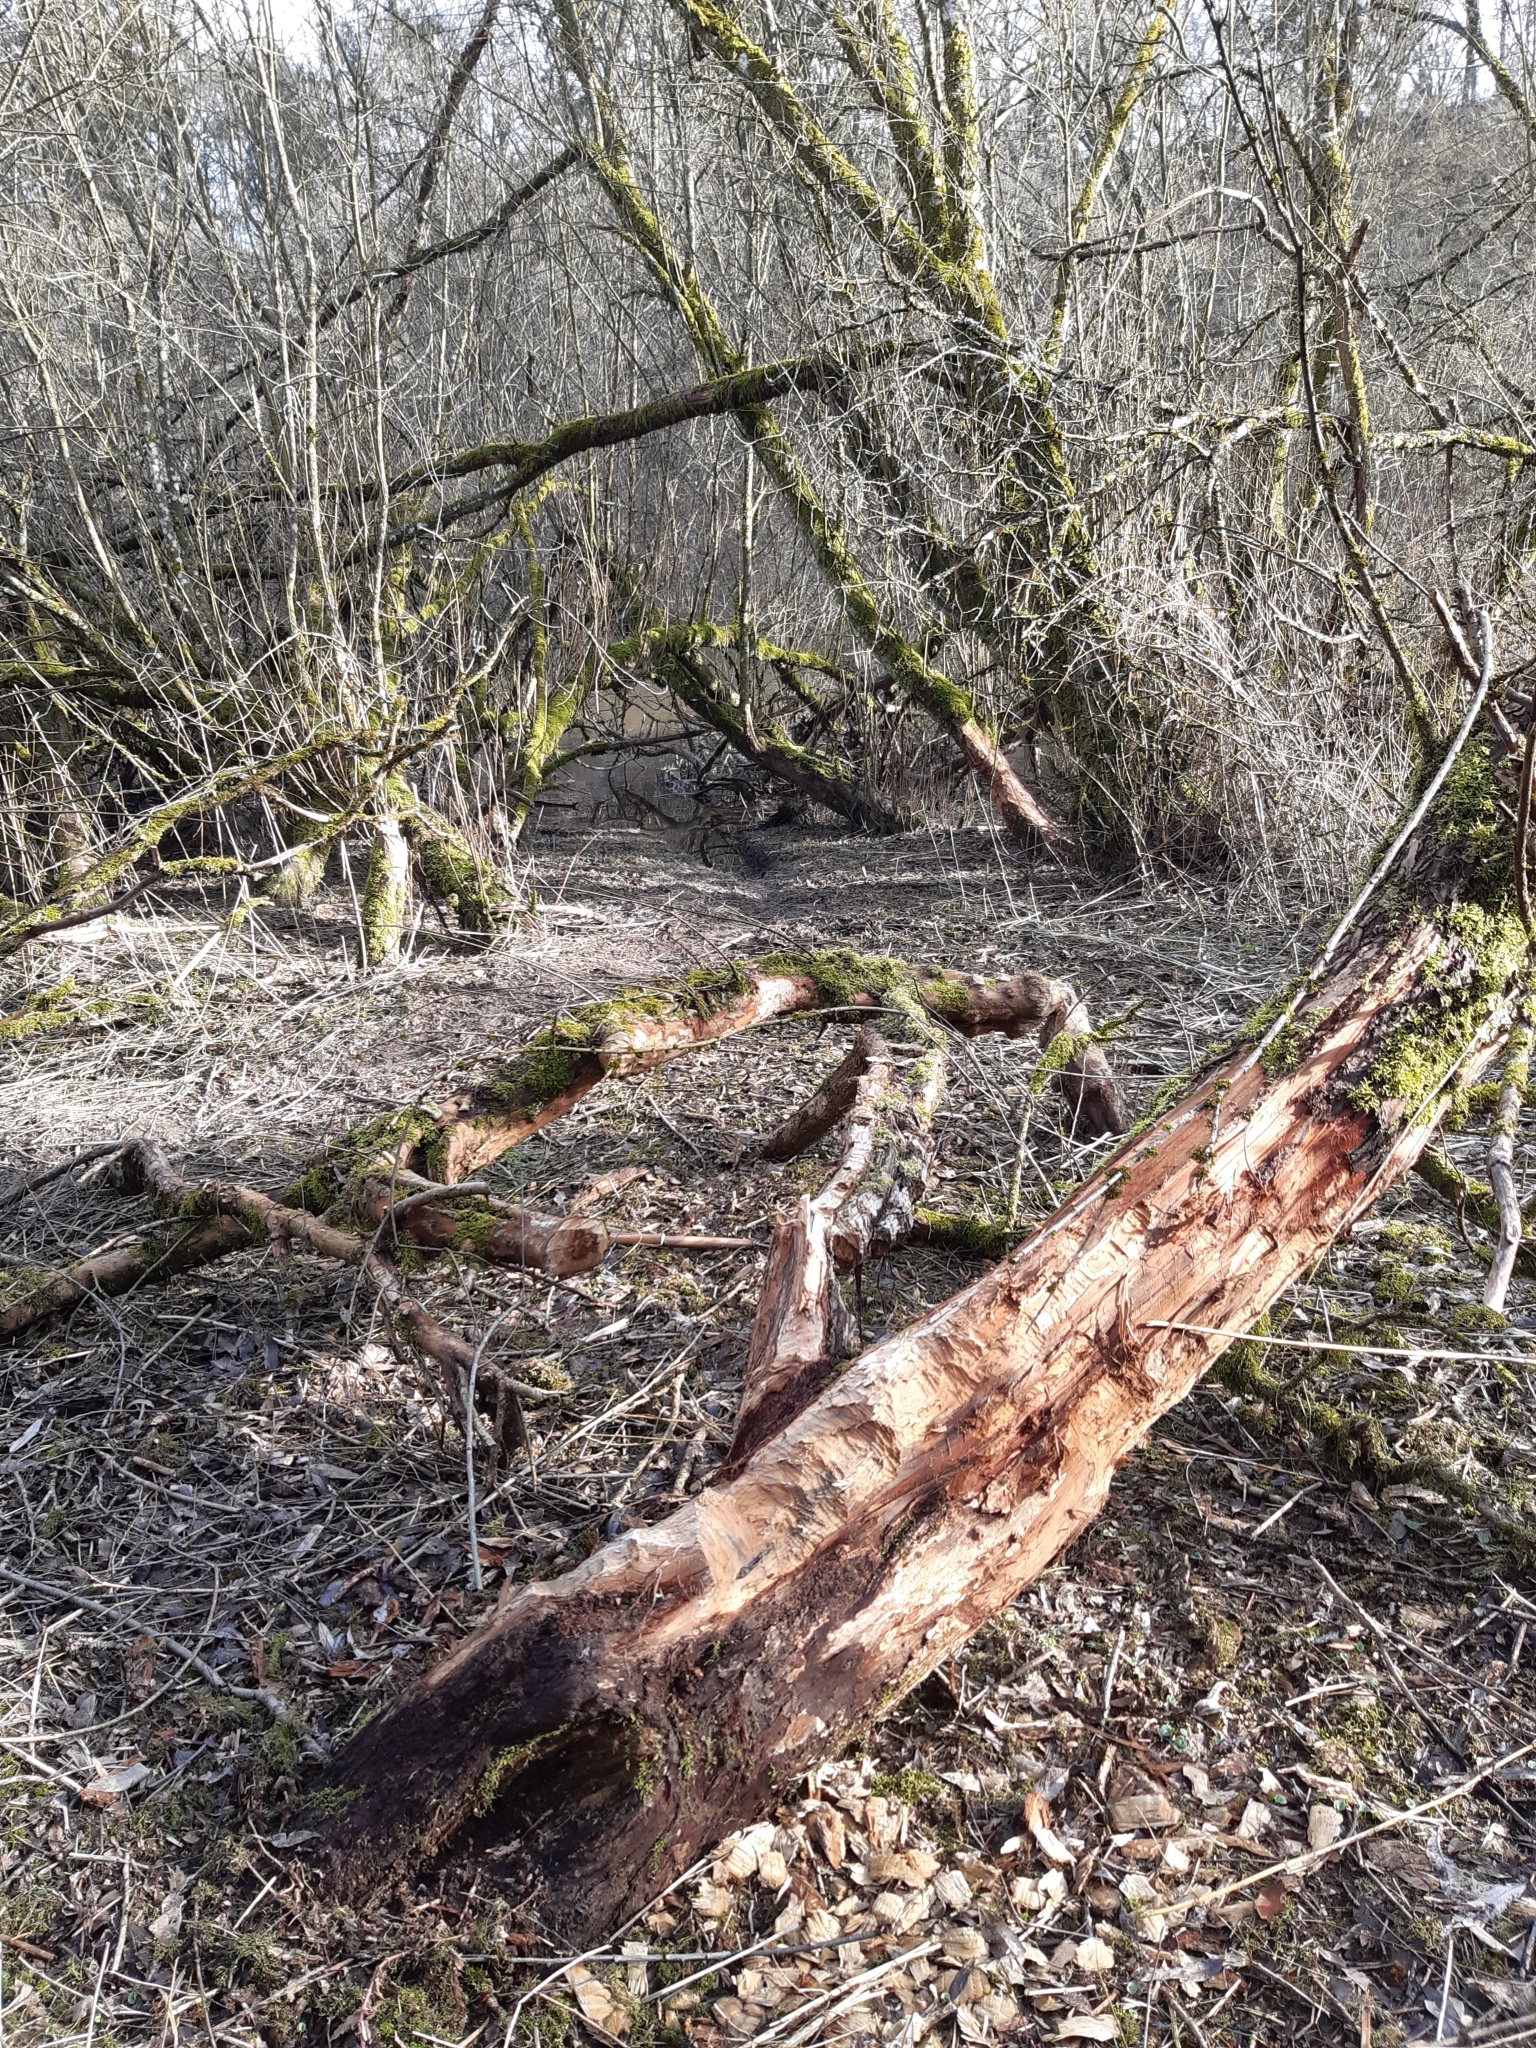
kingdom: Animalia
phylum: Chordata
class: Mammalia
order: Rodentia
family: Castoridae
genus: Castor
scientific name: Castor fiber
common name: Eurasian beaver
